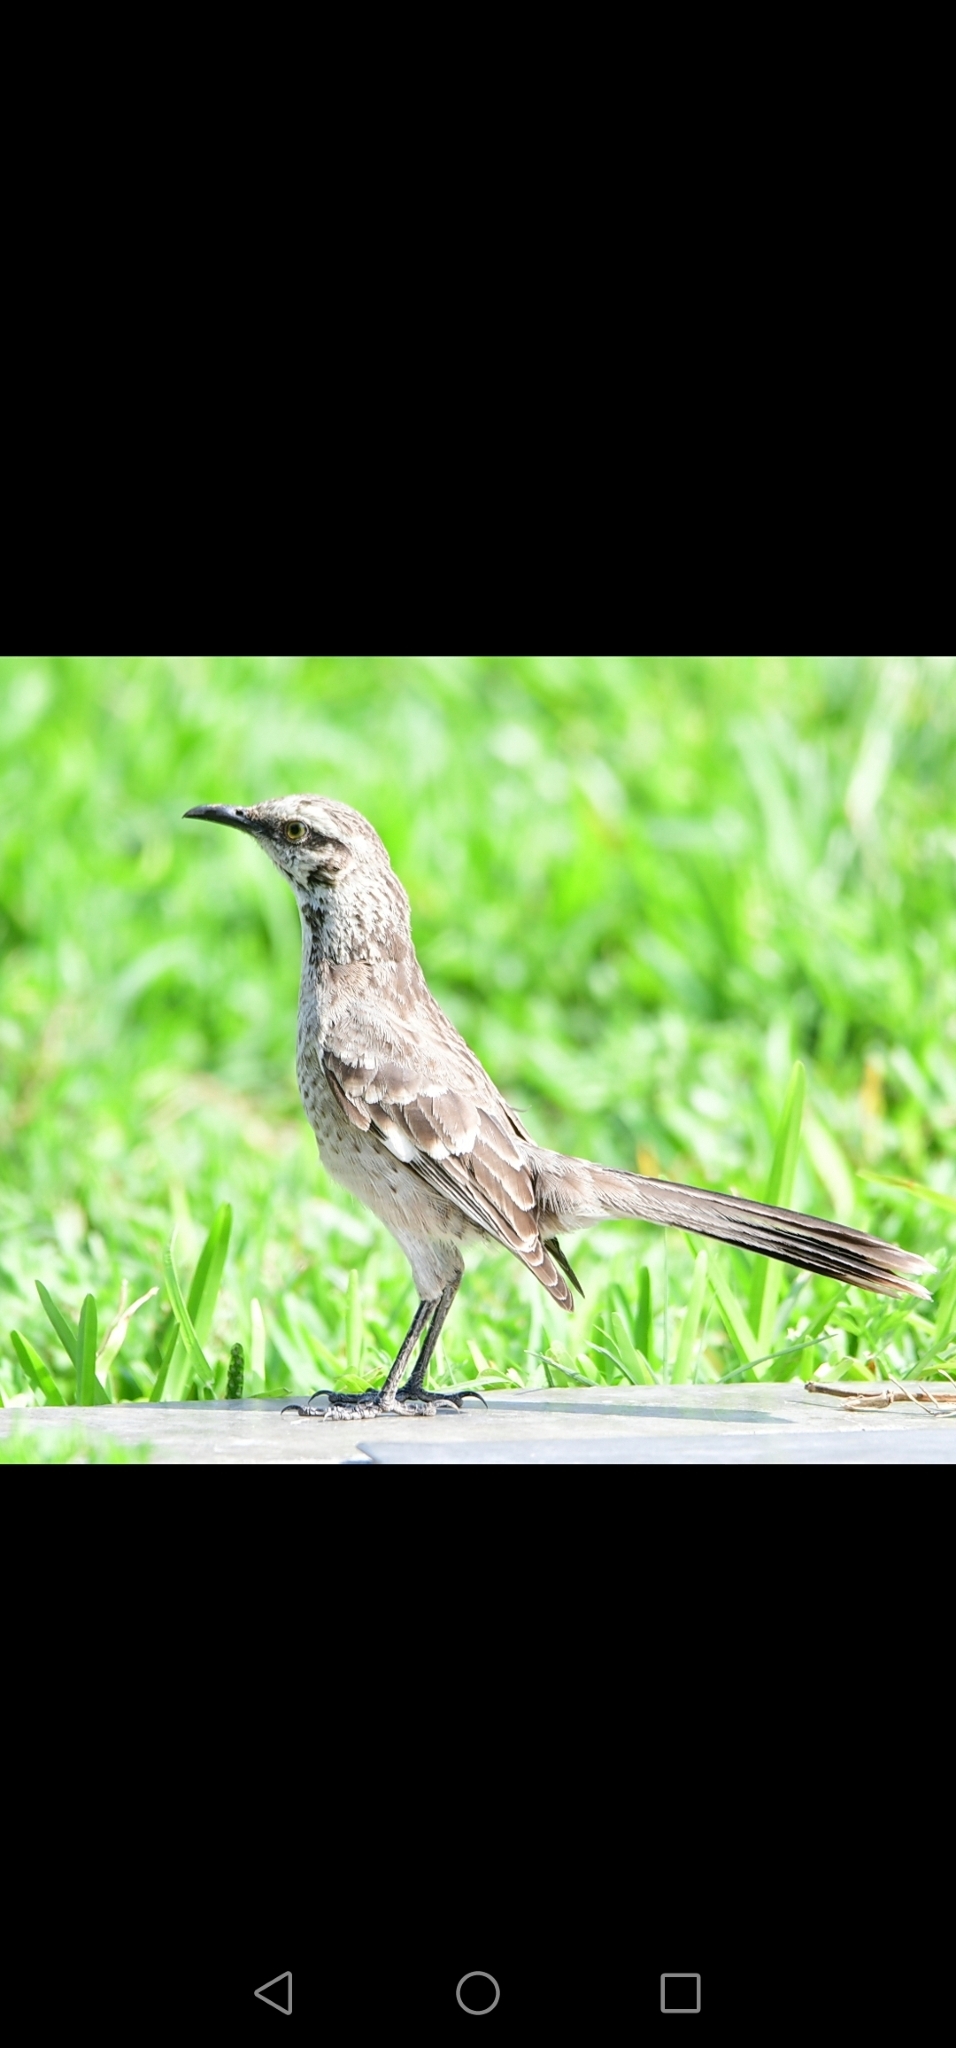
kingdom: Animalia
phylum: Chordata
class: Aves
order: Passeriformes
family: Mimidae
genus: Mimus
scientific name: Mimus longicaudatus
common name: Long-tailed mockingbird
